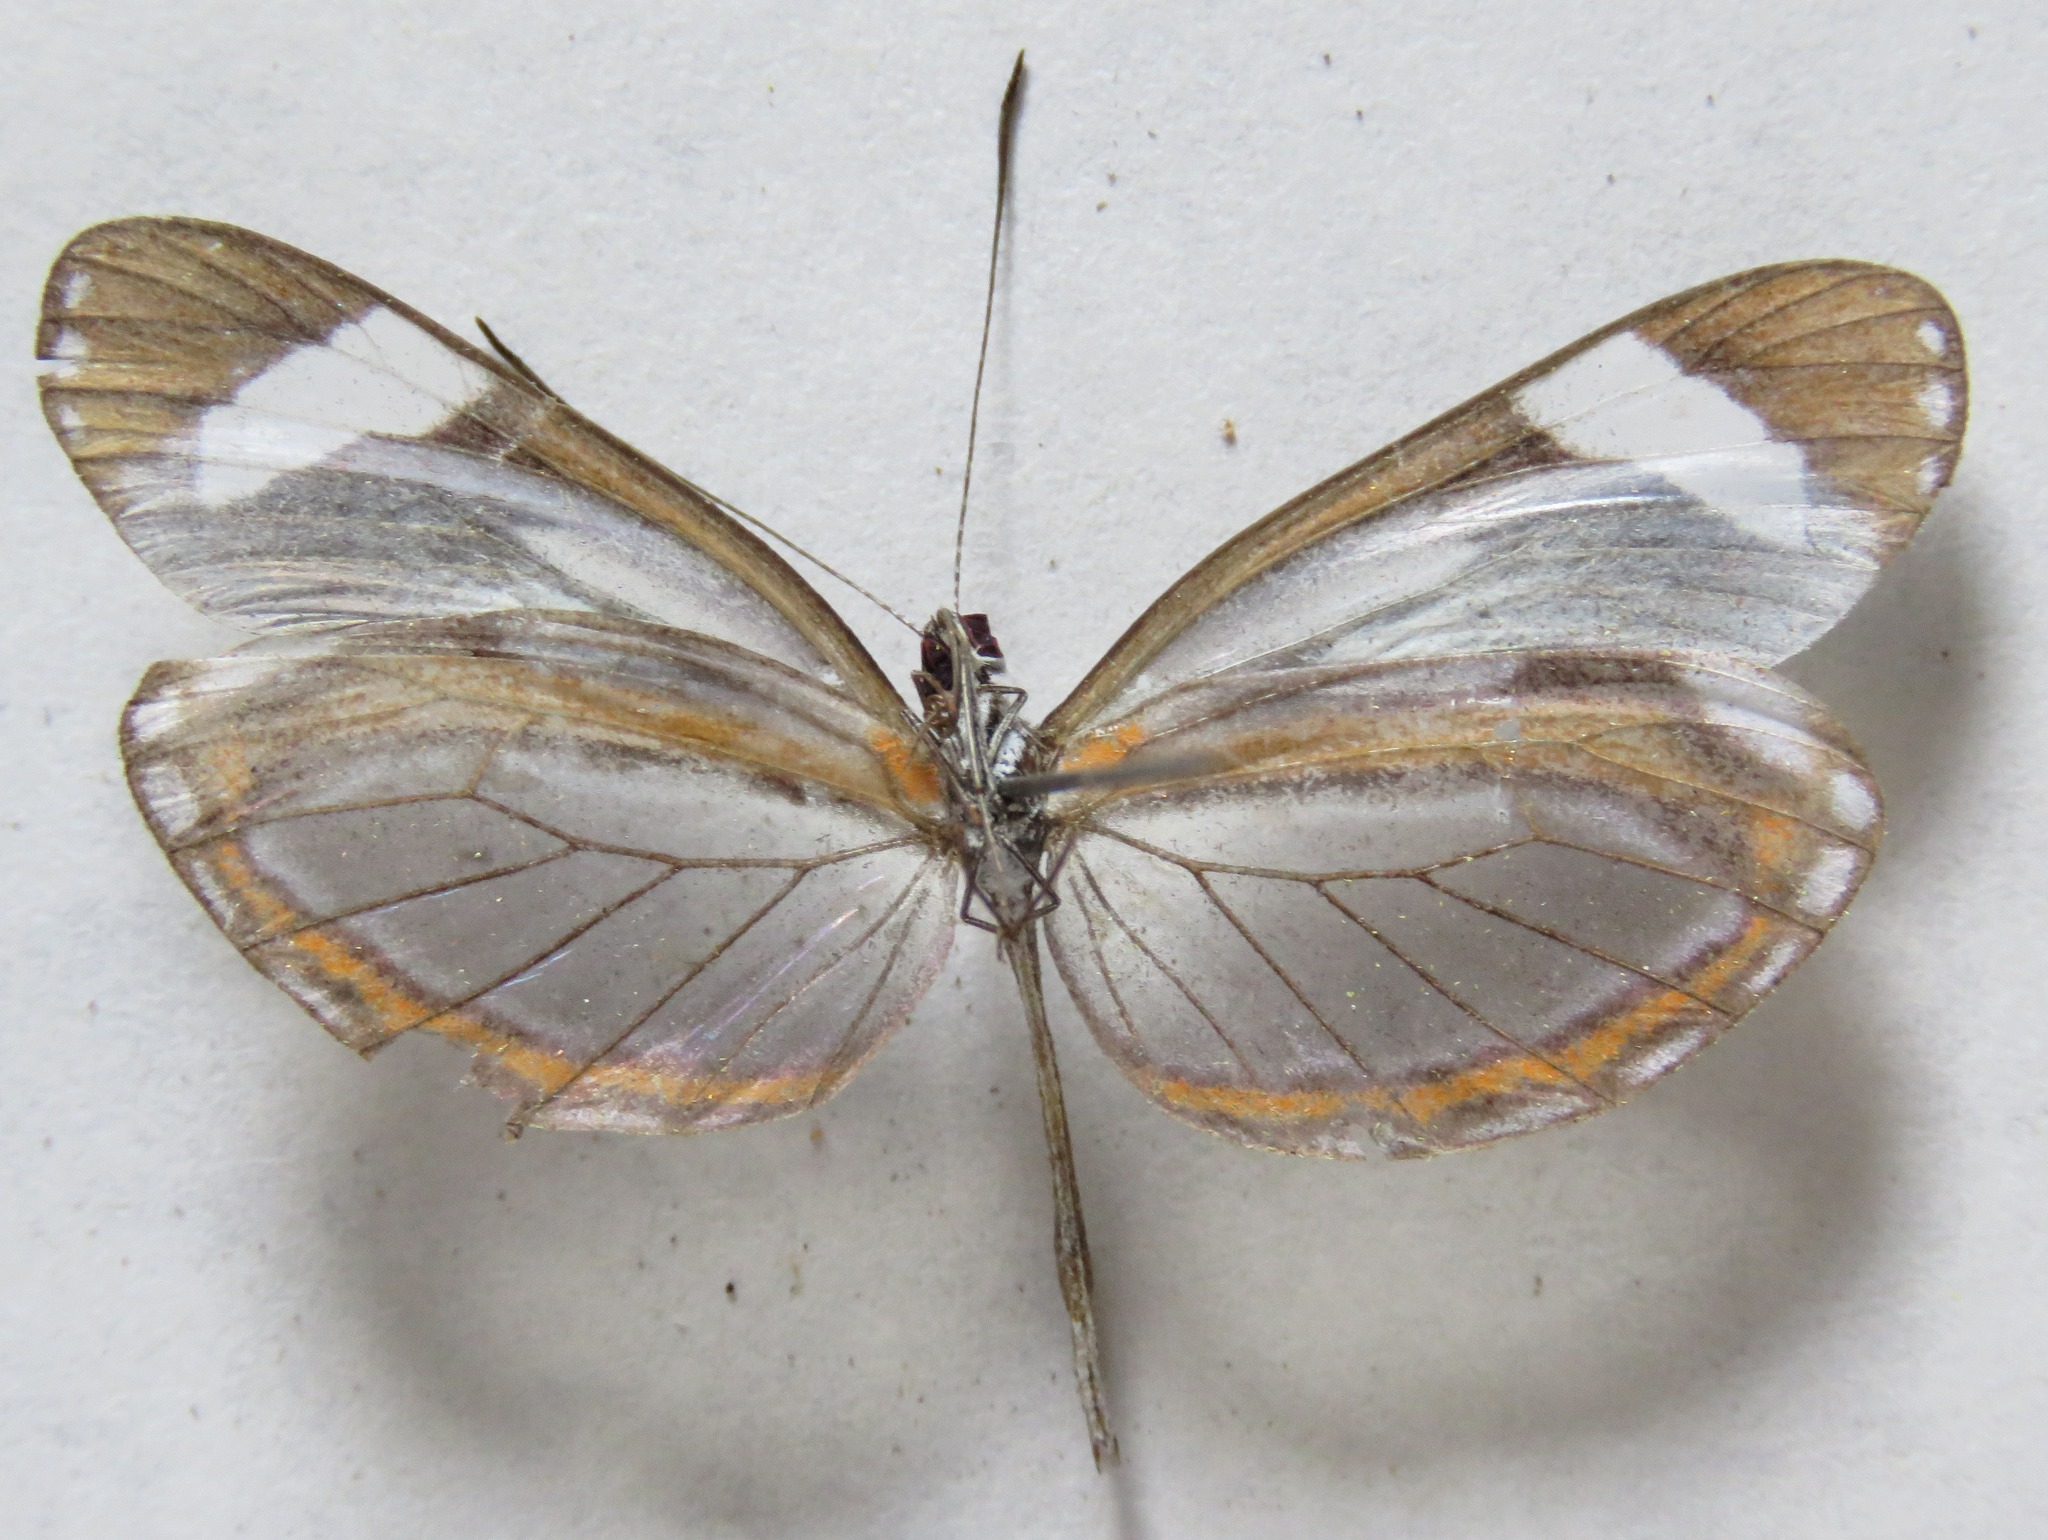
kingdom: Animalia
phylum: Arthropoda
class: Insecta
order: Lepidoptera
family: Pieridae
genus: Dismorphia
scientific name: Dismorphia theucharila
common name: Clearwing mimic-white
